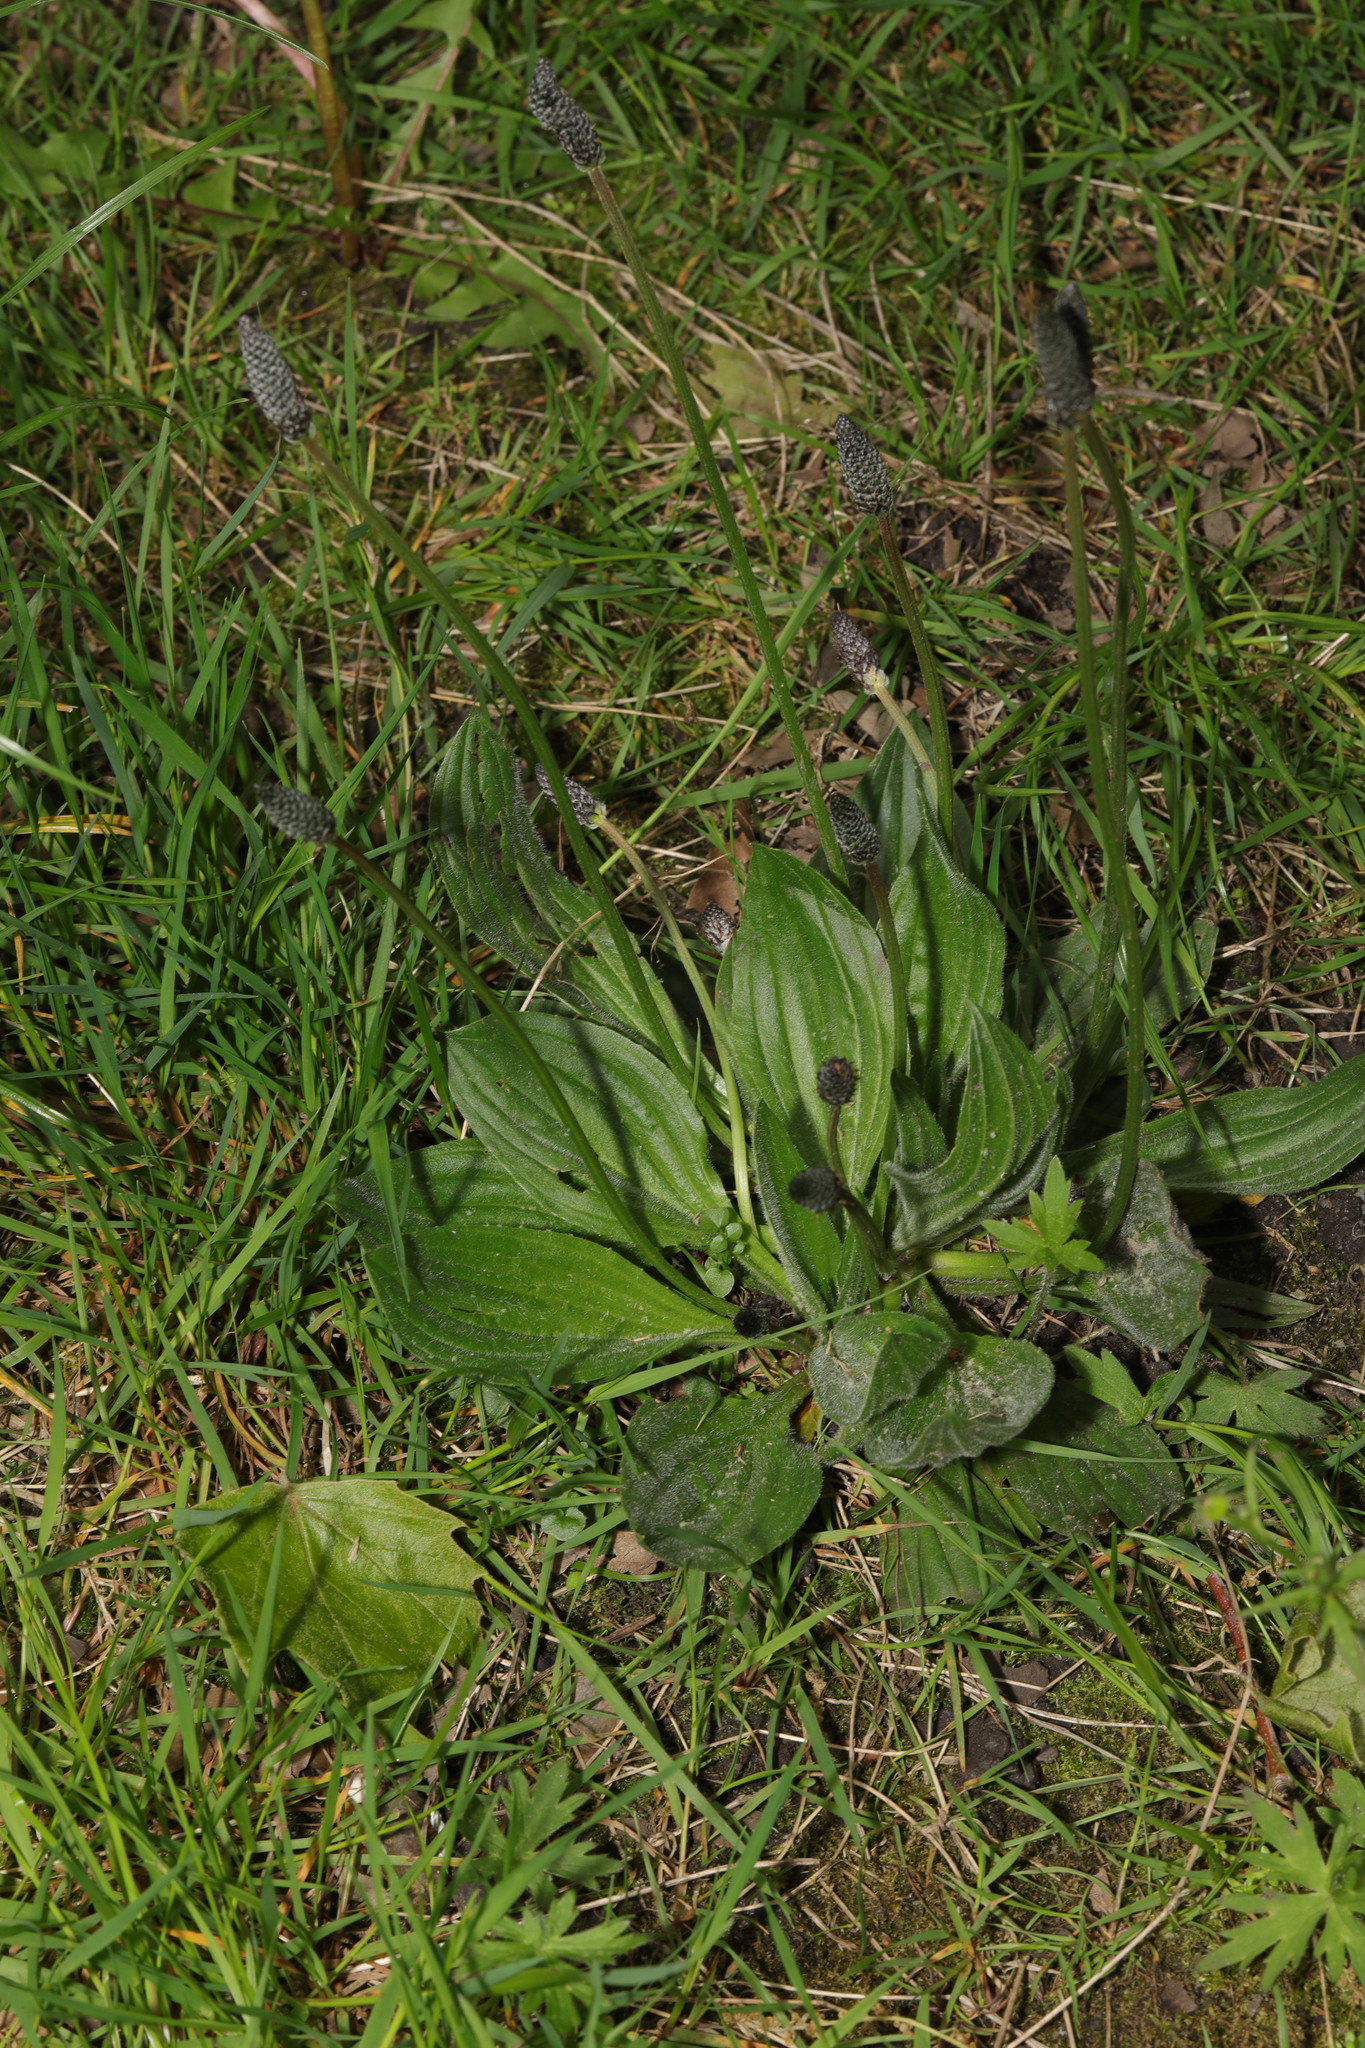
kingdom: Plantae
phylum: Tracheophyta
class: Magnoliopsida
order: Lamiales
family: Plantaginaceae
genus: Plantago
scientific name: Plantago lanceolata
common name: Ribwort plantain
